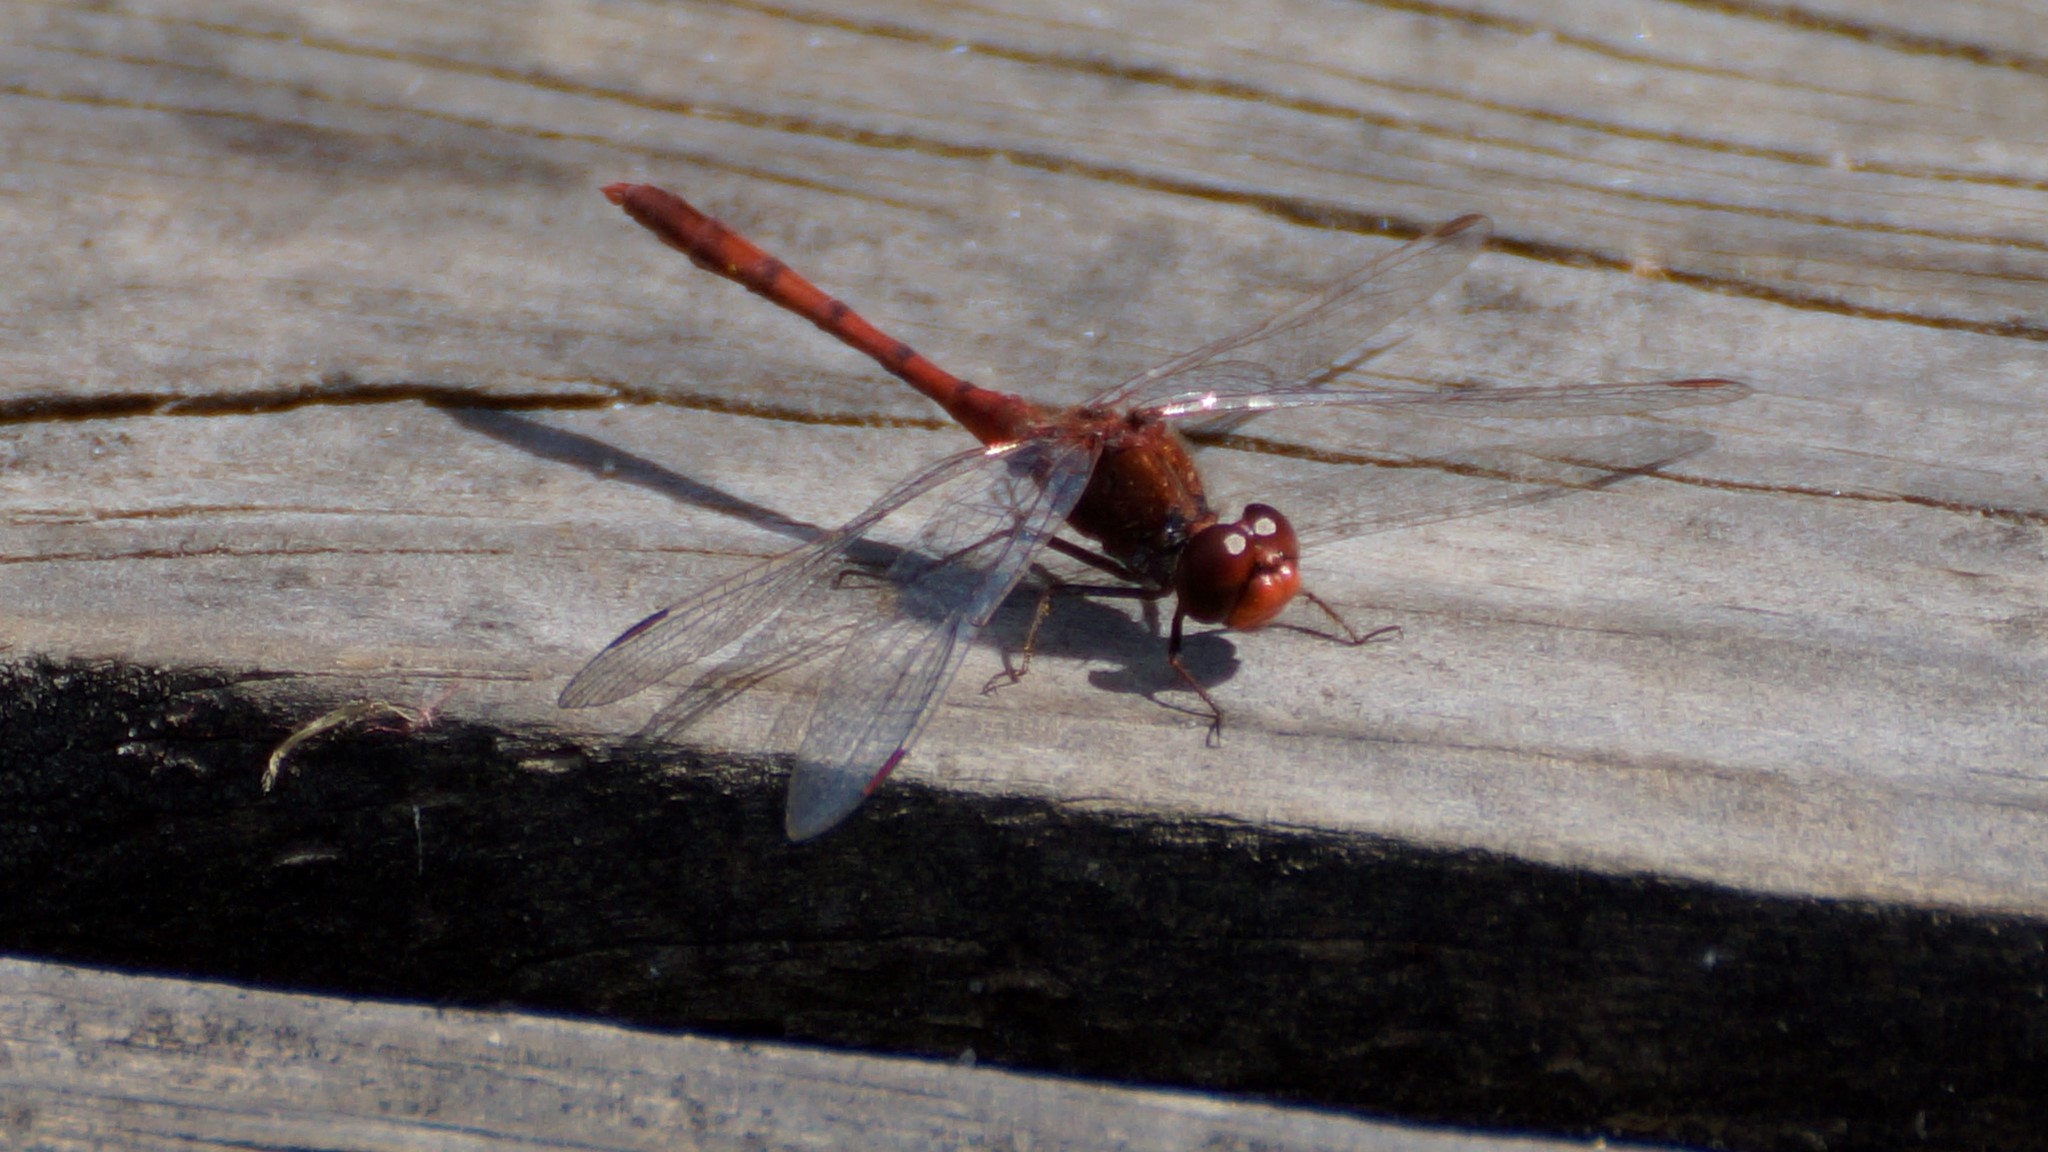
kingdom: Animalia
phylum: Arthropoda
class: Insecta
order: Odonata
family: Libellulidae
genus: Diplacodes
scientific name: Diplacodes bipunctata
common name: Red percher dragonfly
